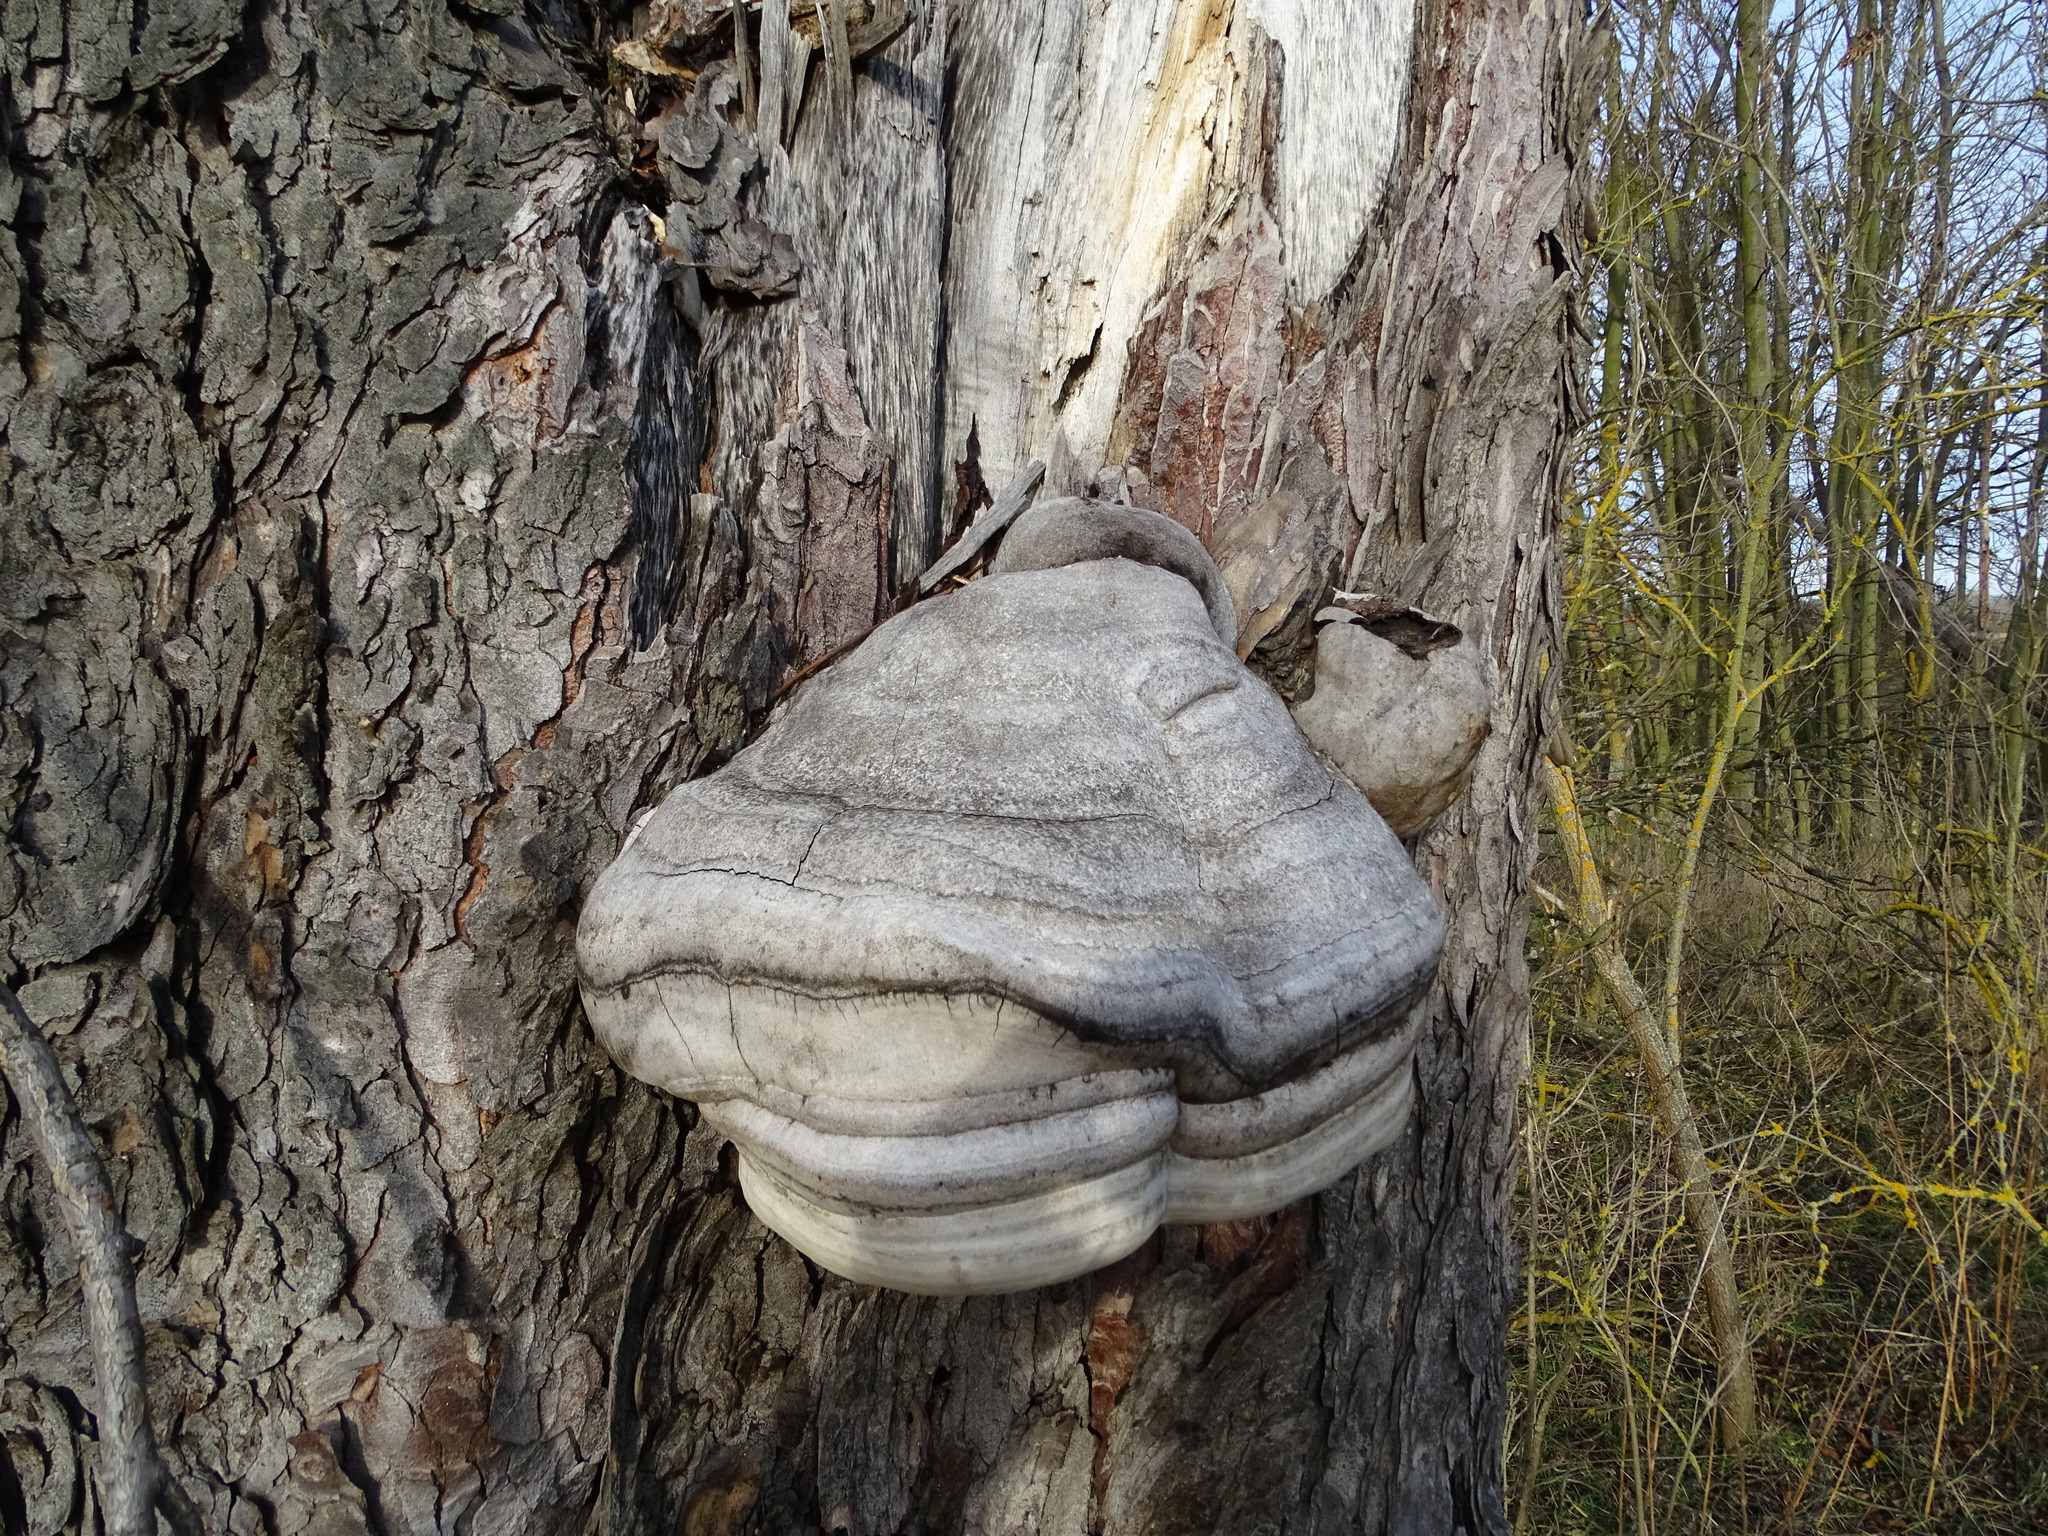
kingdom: Fungi
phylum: Basidiomycota
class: Agaricomycetes
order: Polyporales
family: Polyporaceae
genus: Fomes
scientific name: Fomes fomentarius
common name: Hoof fungus
